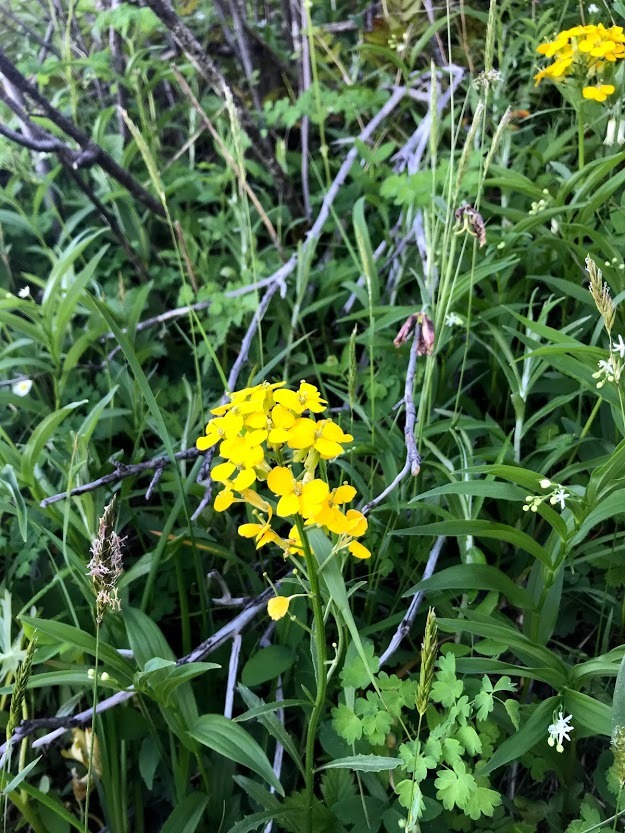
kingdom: Plantae
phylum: Tracheophyta
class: Magnoliopsida
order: Brassicales
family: Brassicaceae
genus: Erysimum
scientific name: Erysimum capitatum
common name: Western wallflower
